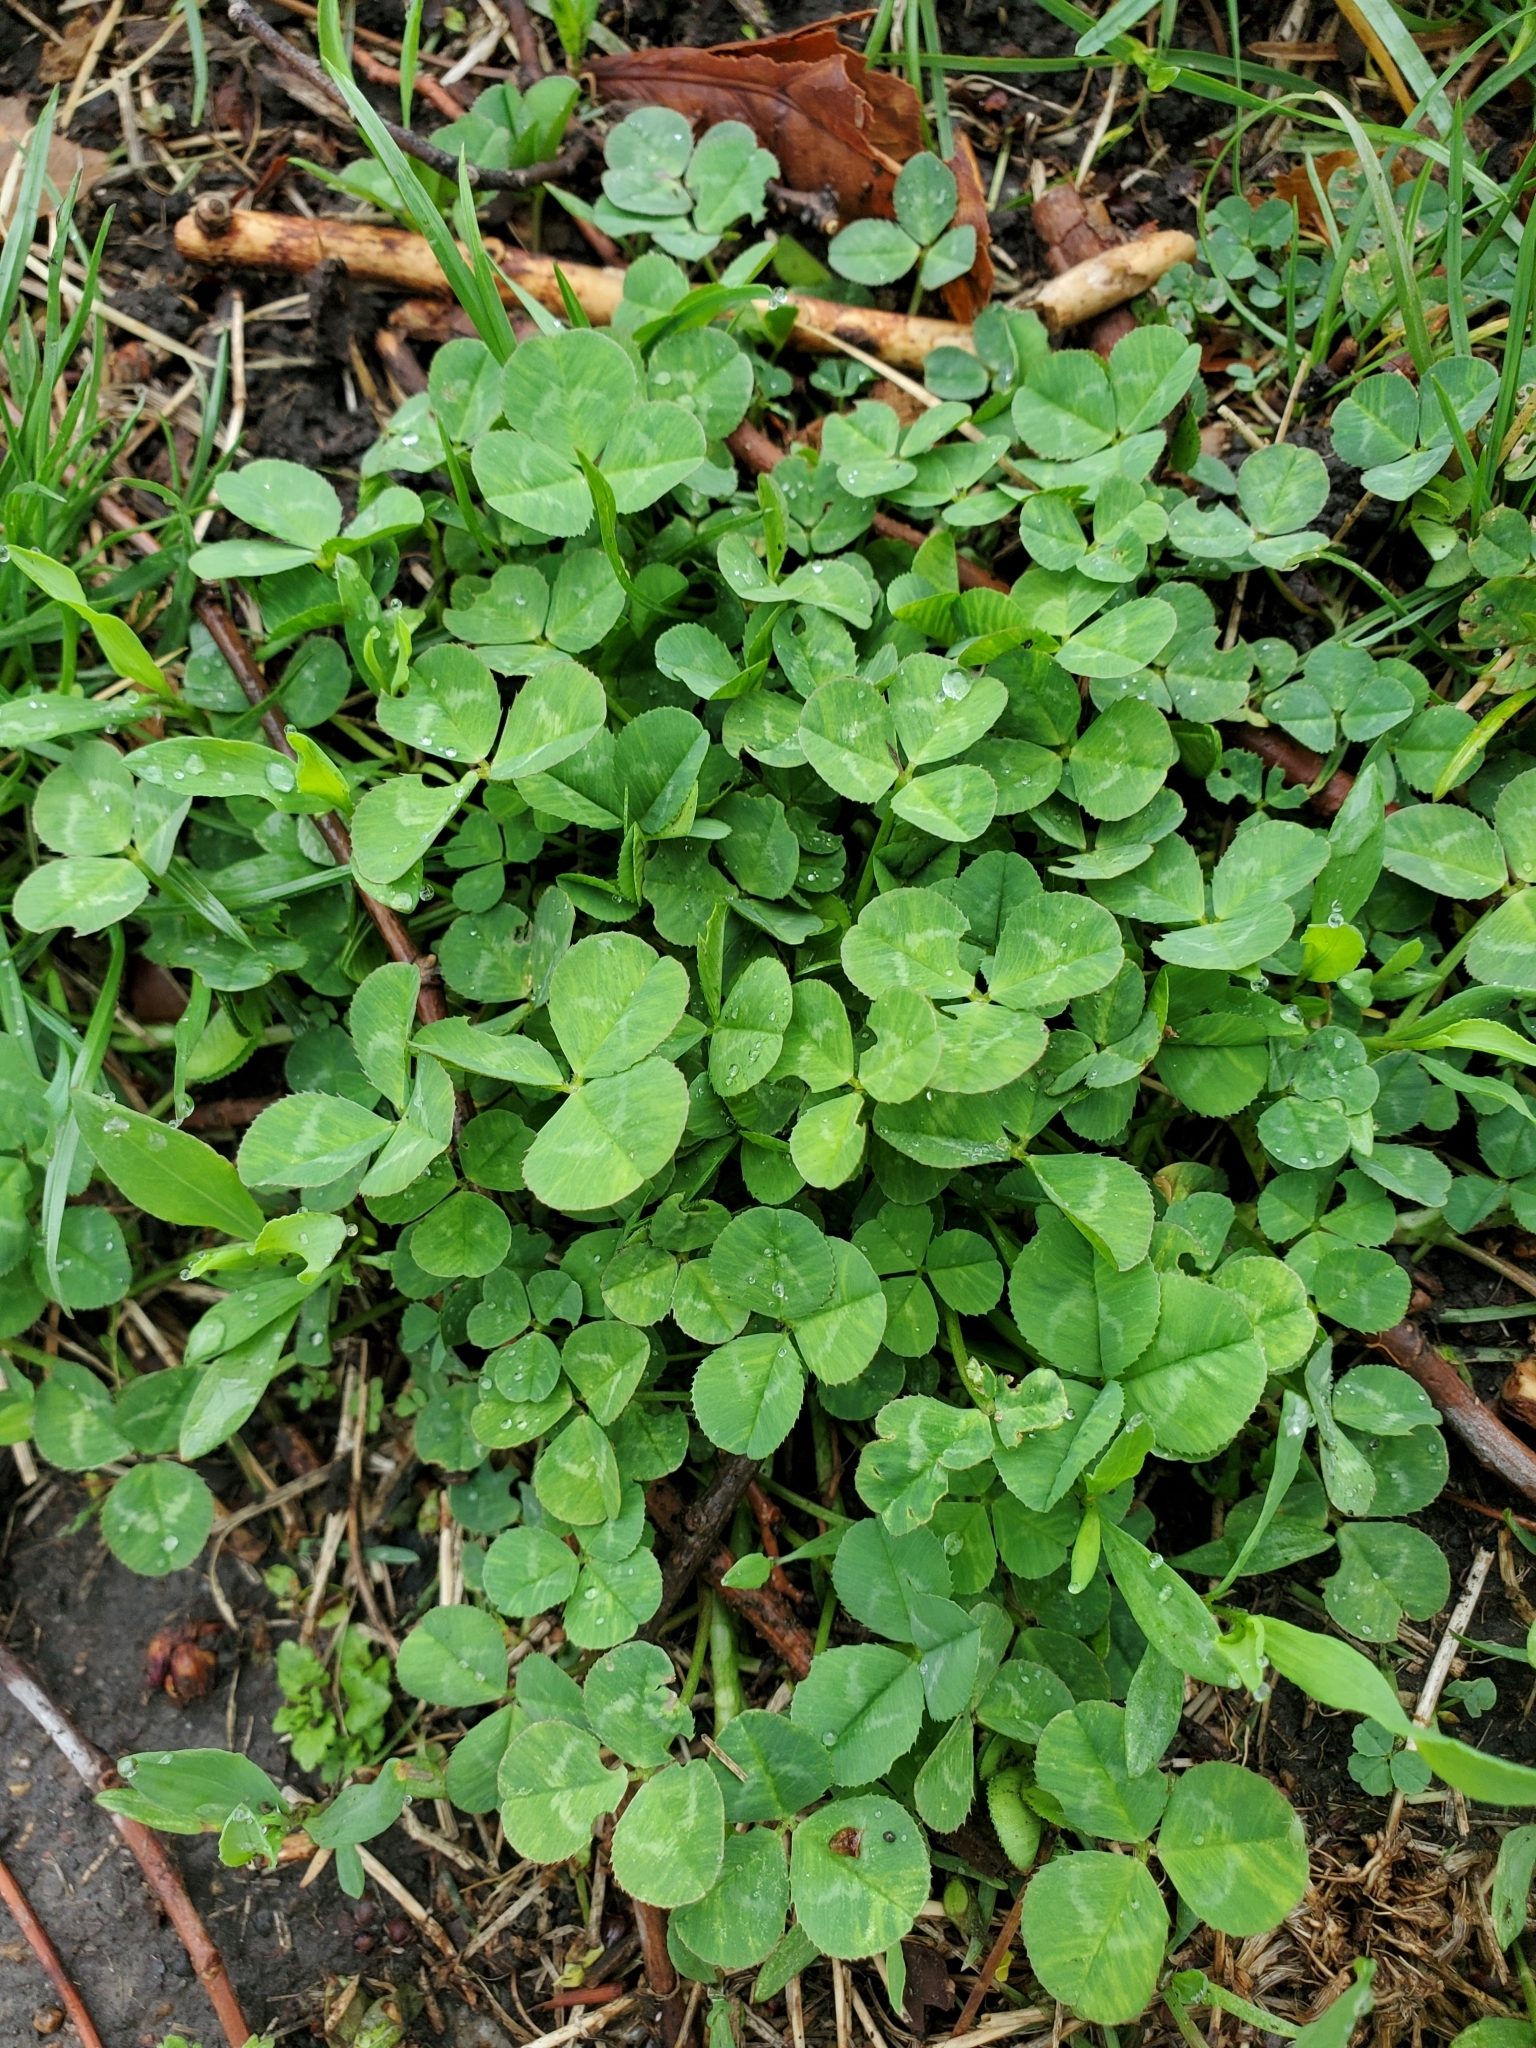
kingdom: Plantae
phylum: Tracheophyta
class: Magnoliopsida
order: Fabales
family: Fabaceae
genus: Trifolium
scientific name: Trifolium repens
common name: White clover
